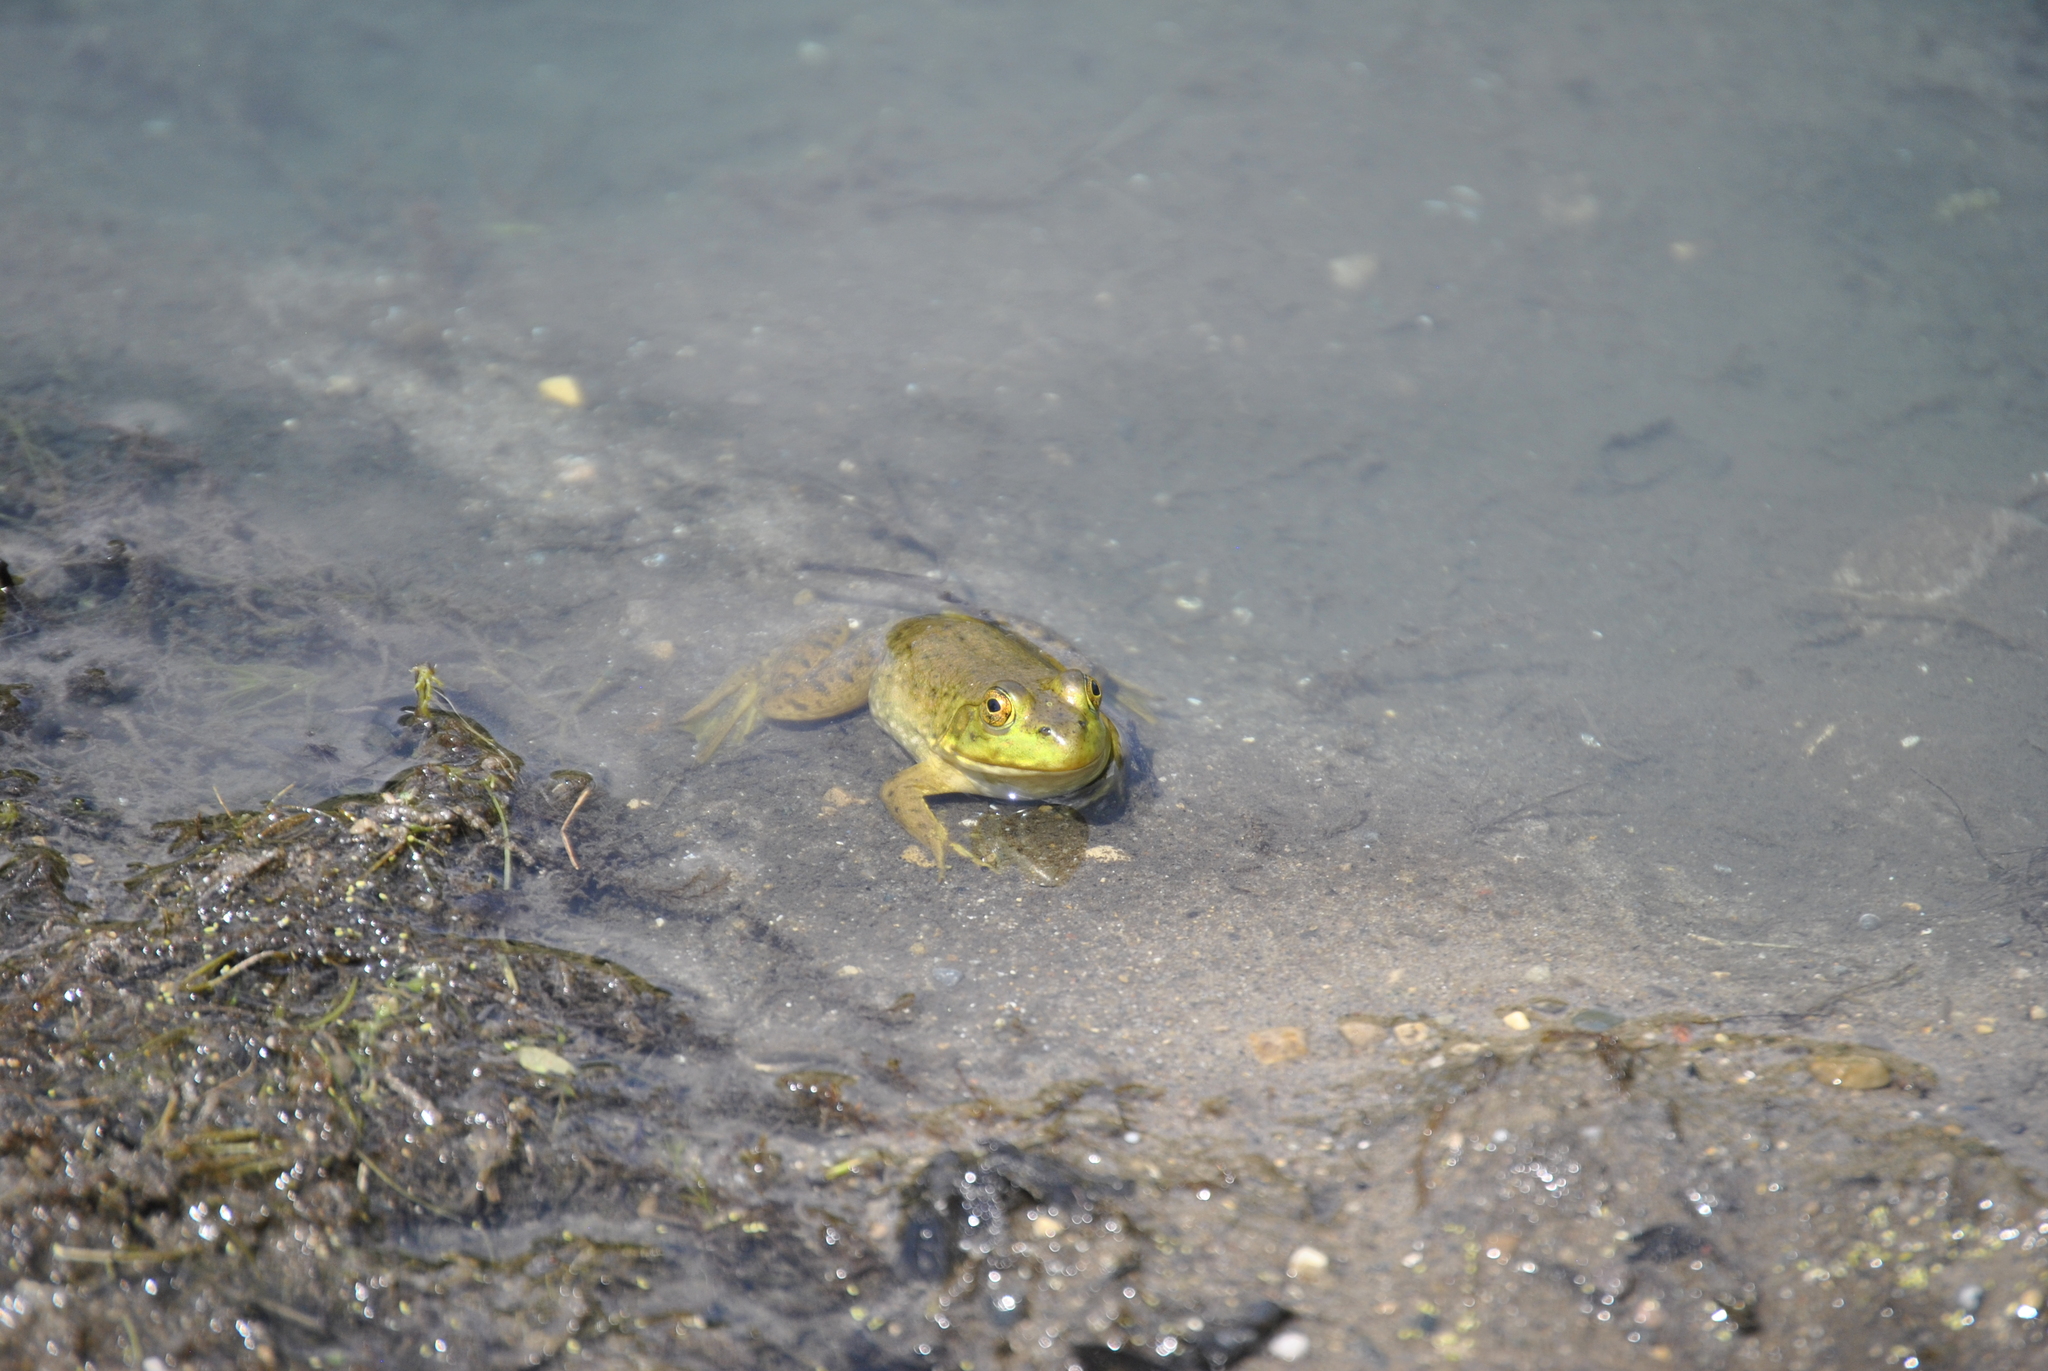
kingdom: Animalia
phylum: Chordata
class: Amphibia
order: Anura
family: Ranidae
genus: Lithobates
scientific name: Lithobates catesbeianus
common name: American bullfrog
